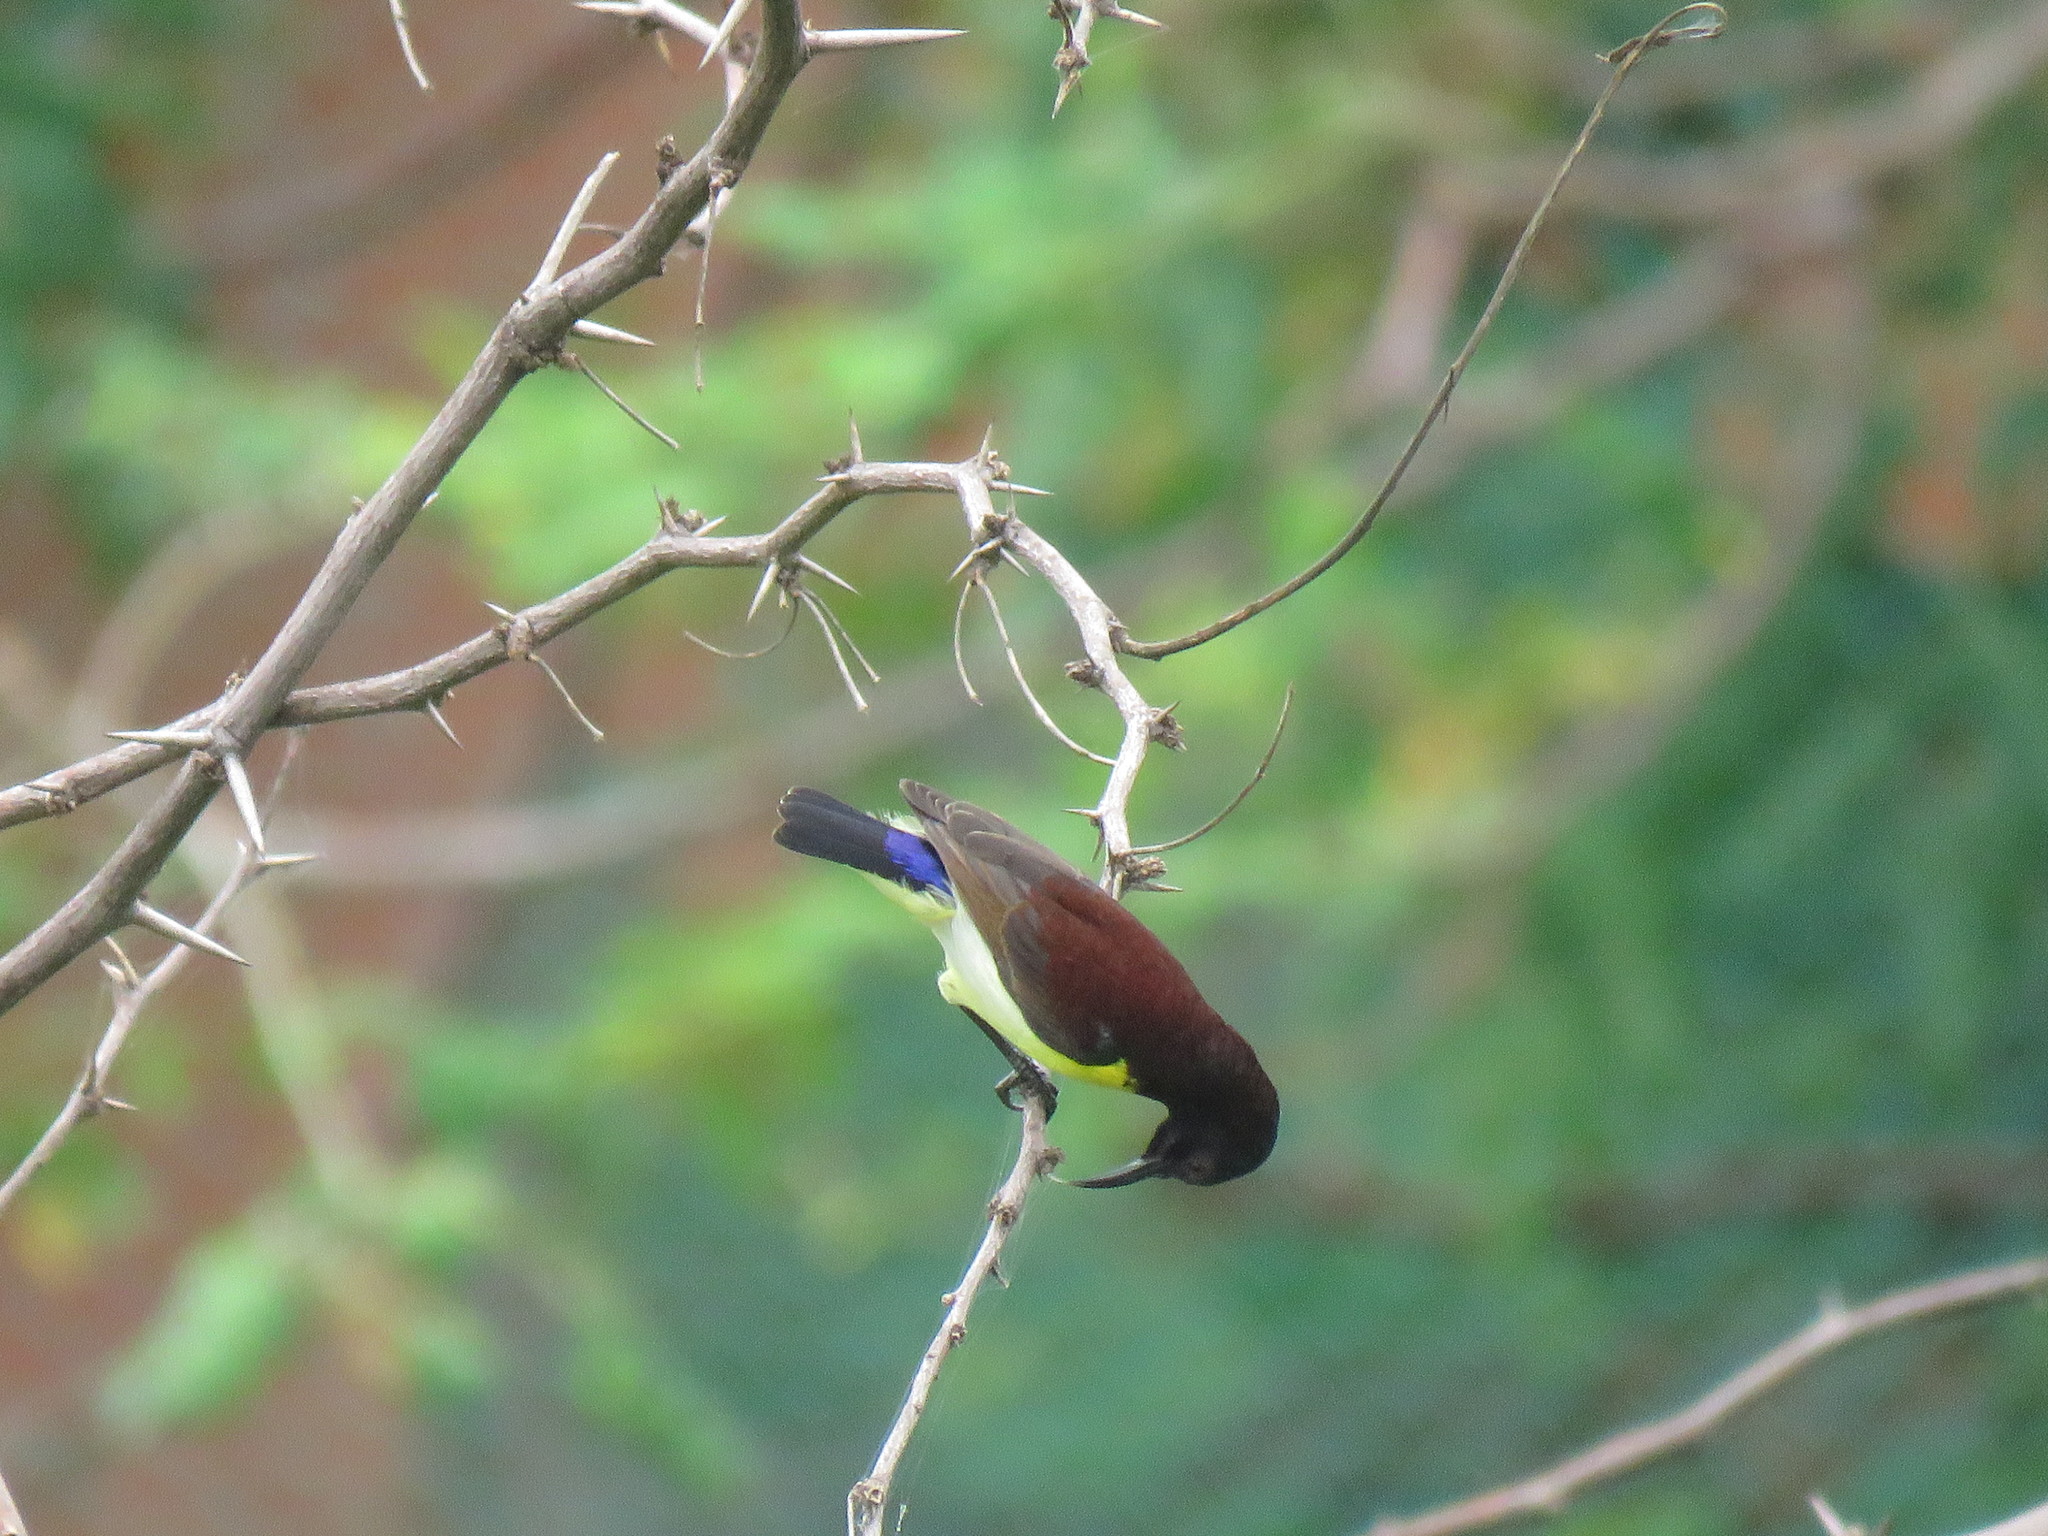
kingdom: Animalia
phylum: Chordata
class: Aves
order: Passeriformes
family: Nectariniidae
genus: Leptocoma
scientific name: Leptocoma zeylonica
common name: Purple-rumped sunbird
